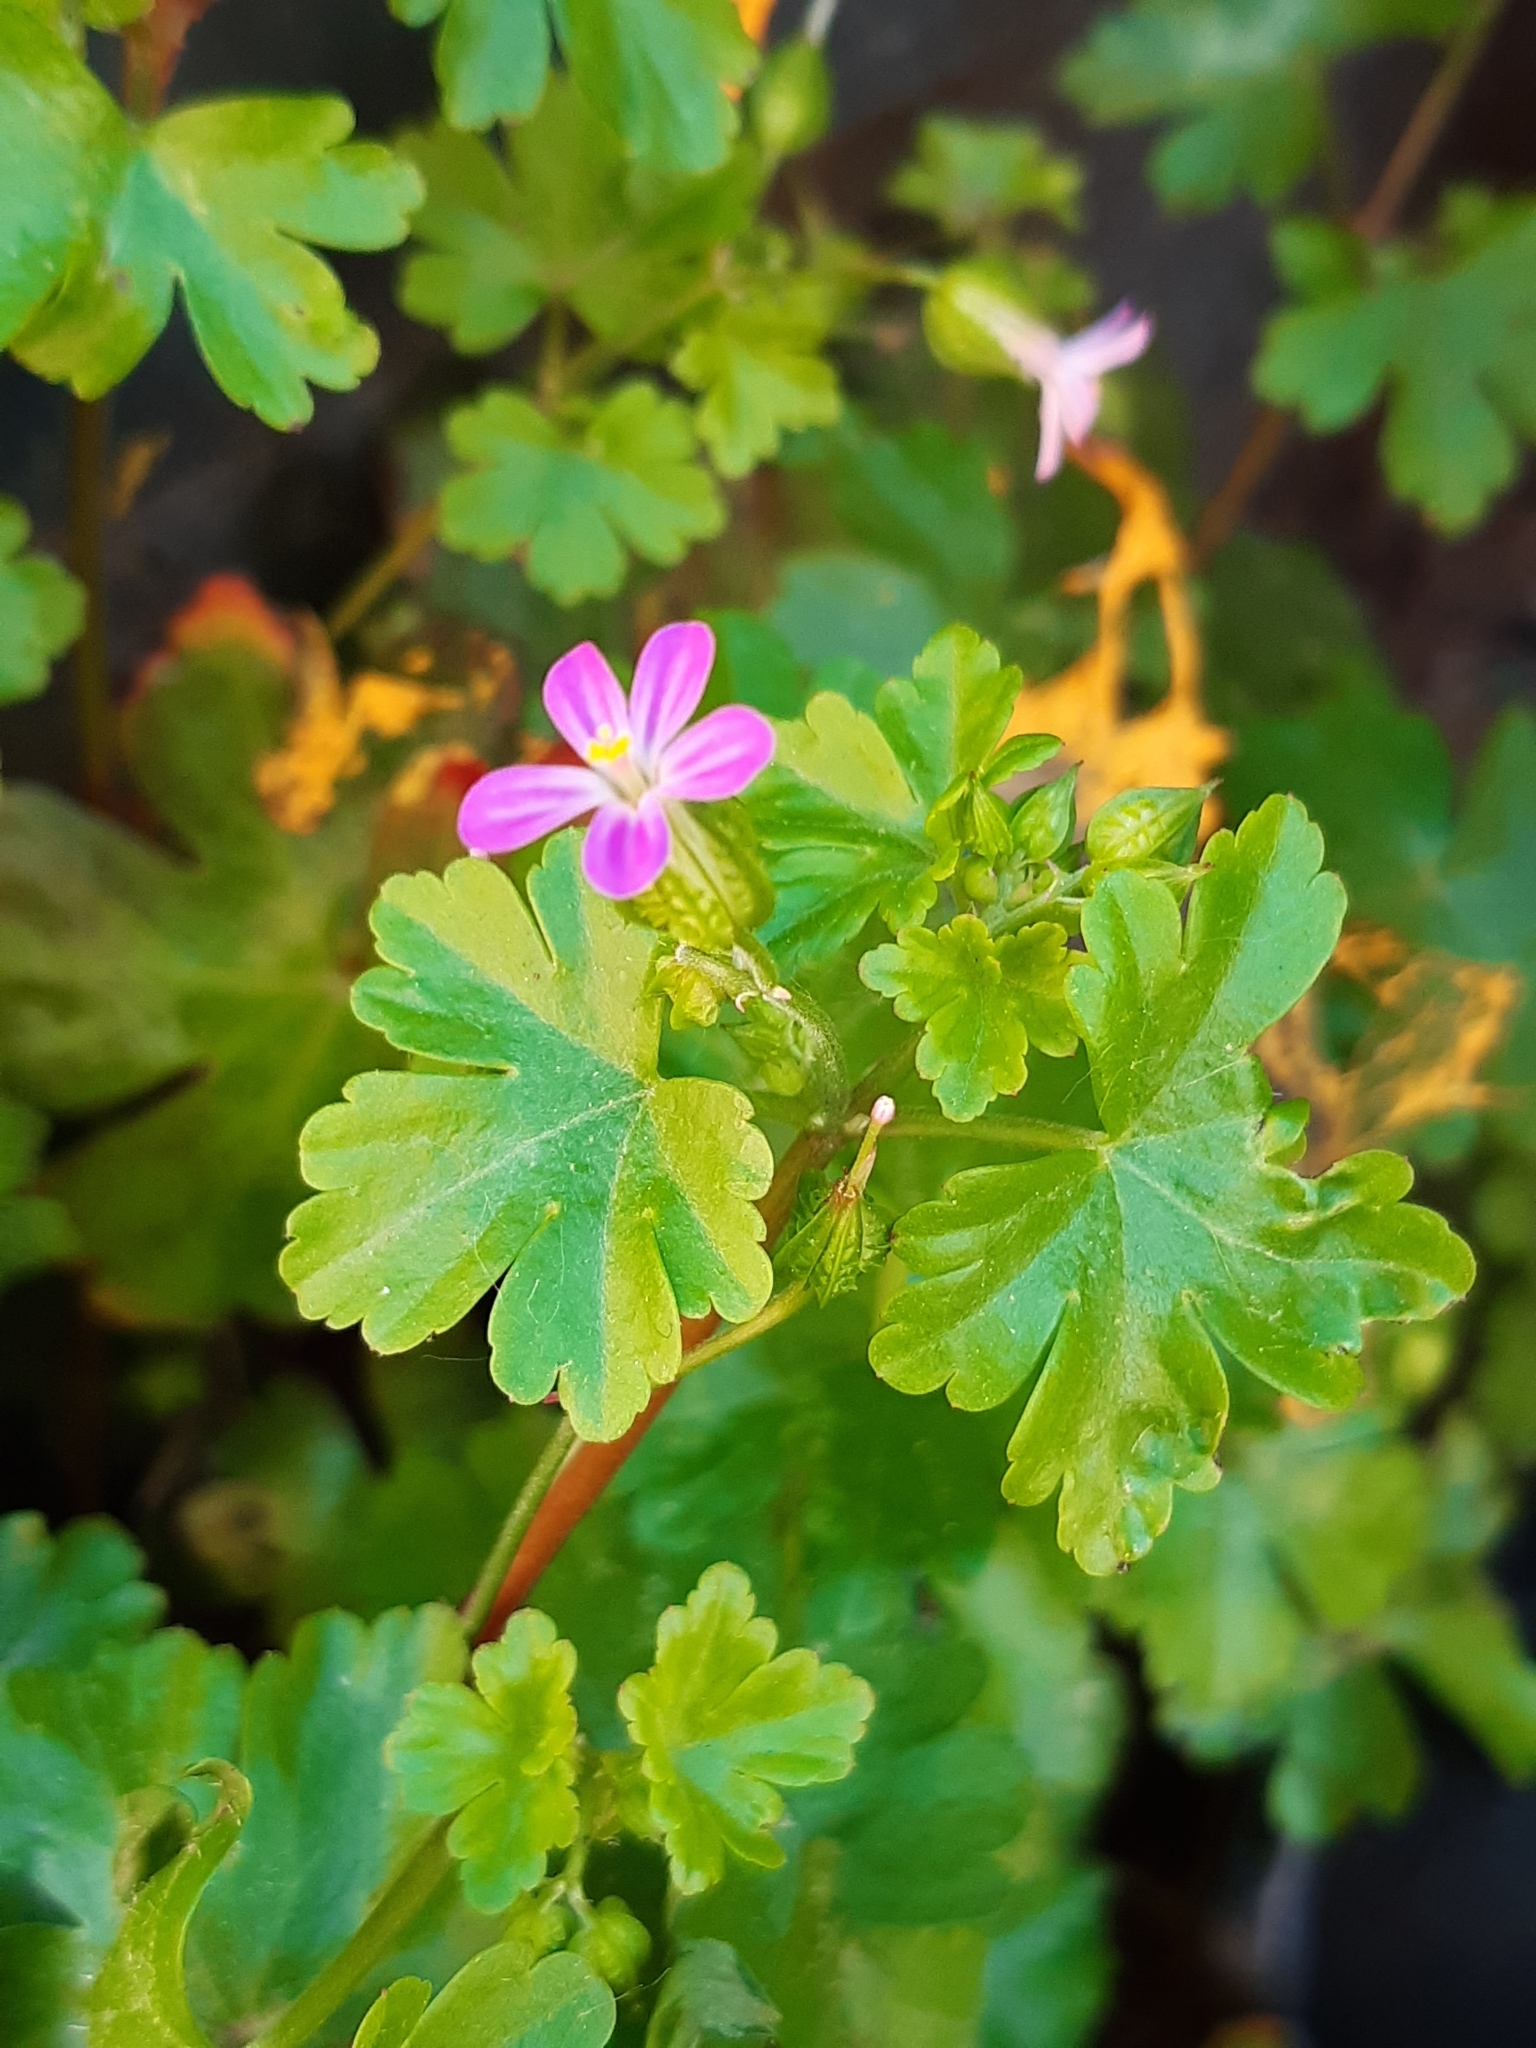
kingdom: Plantae
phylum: Tracheophyta
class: Magnoliopsida
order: Geraniales
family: Geraniaceae
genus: Geranium
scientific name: Geranium lucidum
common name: Shining crane's-bill
